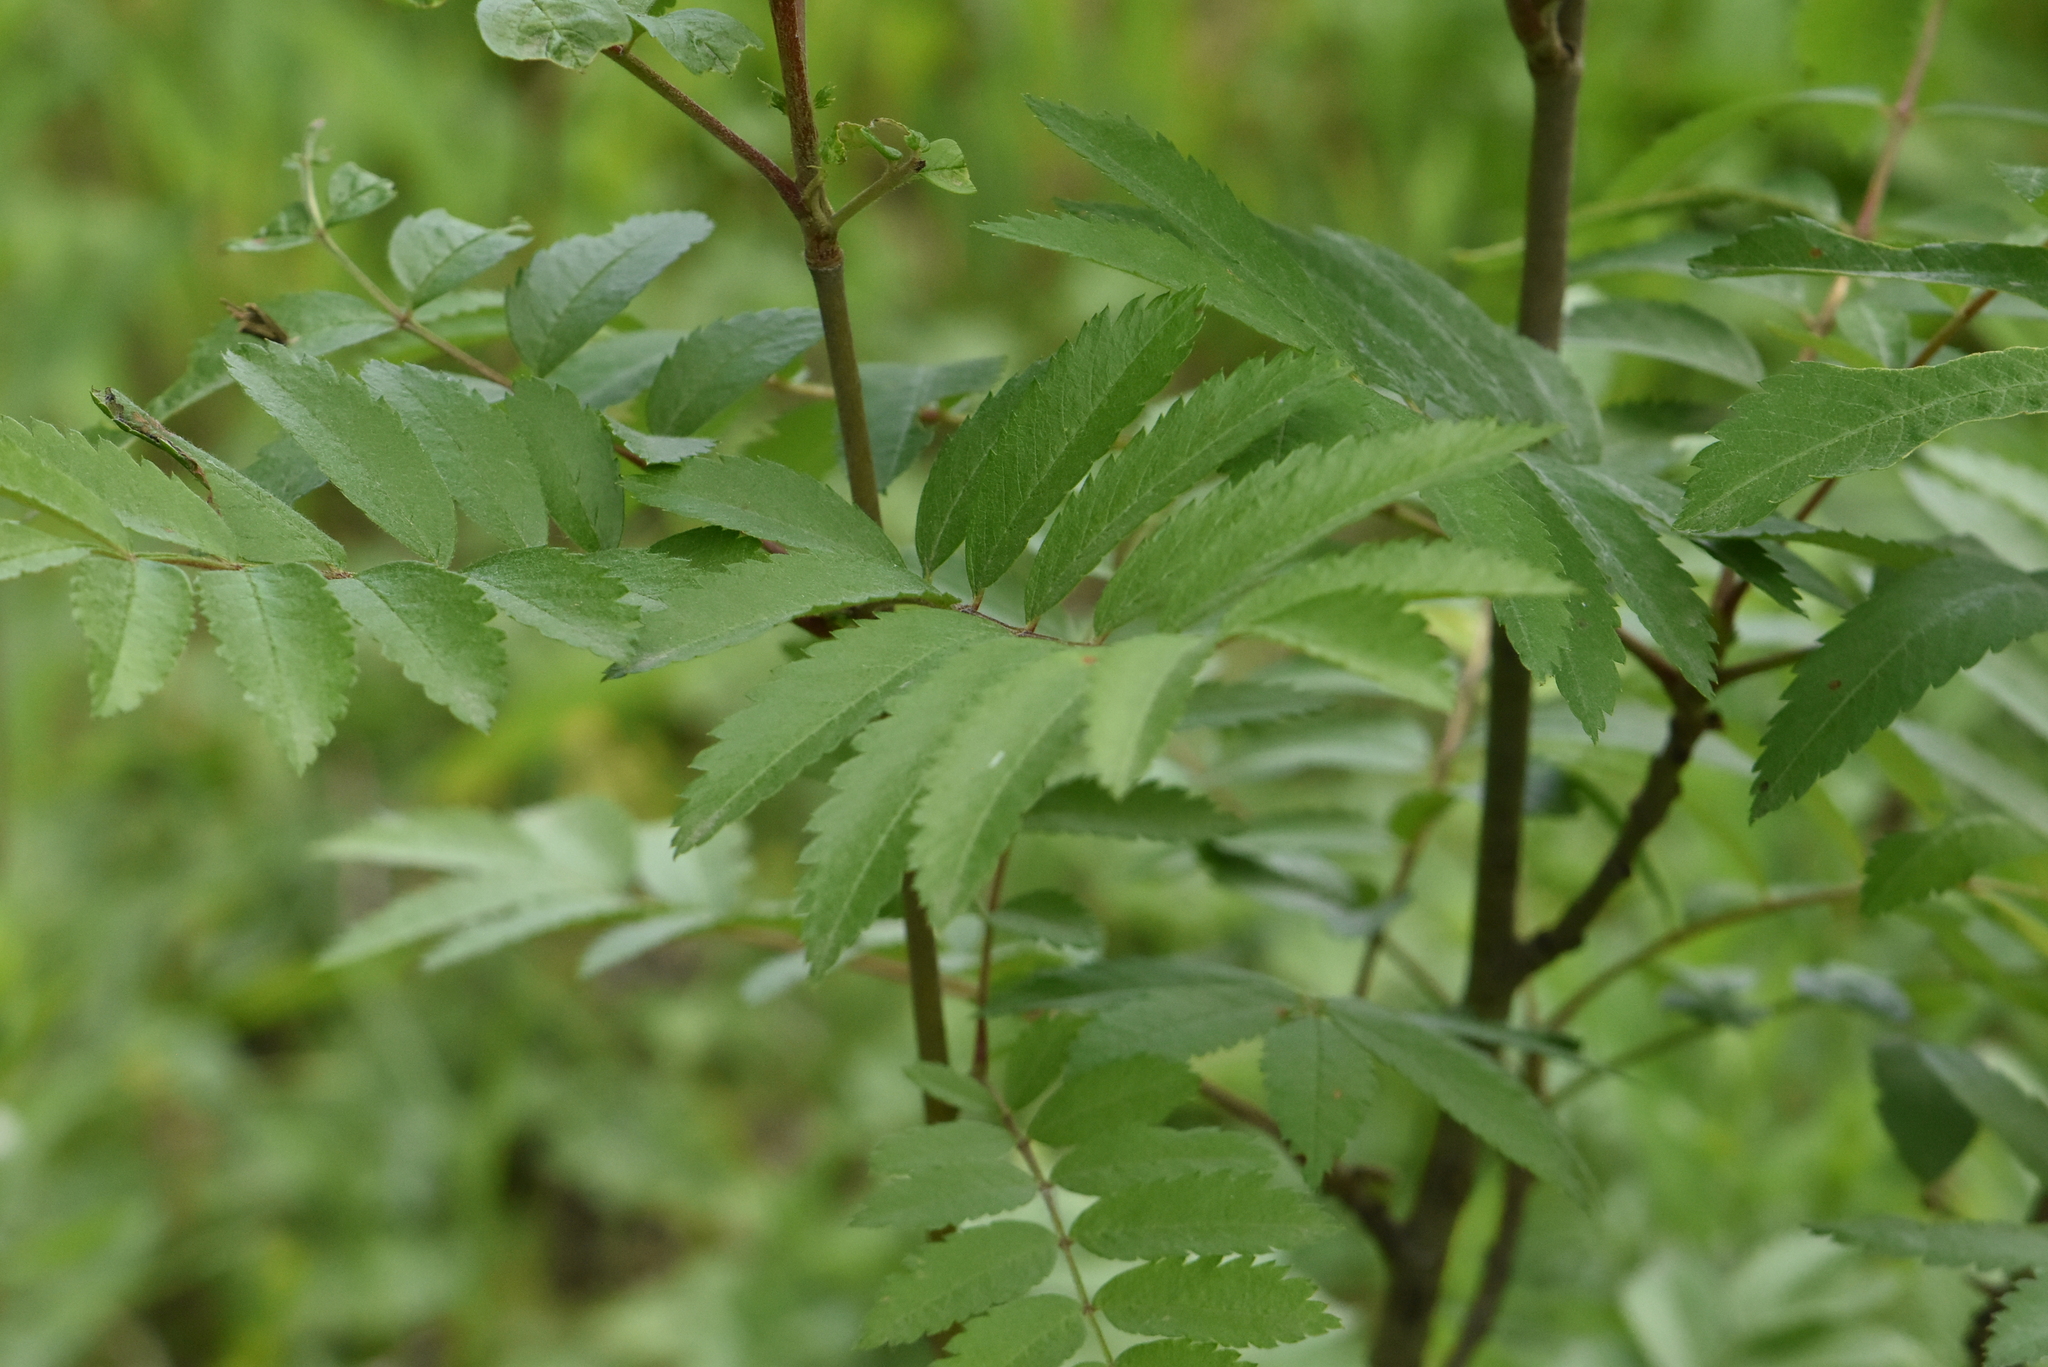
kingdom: Plantae
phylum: Tracheophyta
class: Magnoliopsida
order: Rosales
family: Rosaceae
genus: Sorbus
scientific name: Sorbus aucuparia
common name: Rowan
